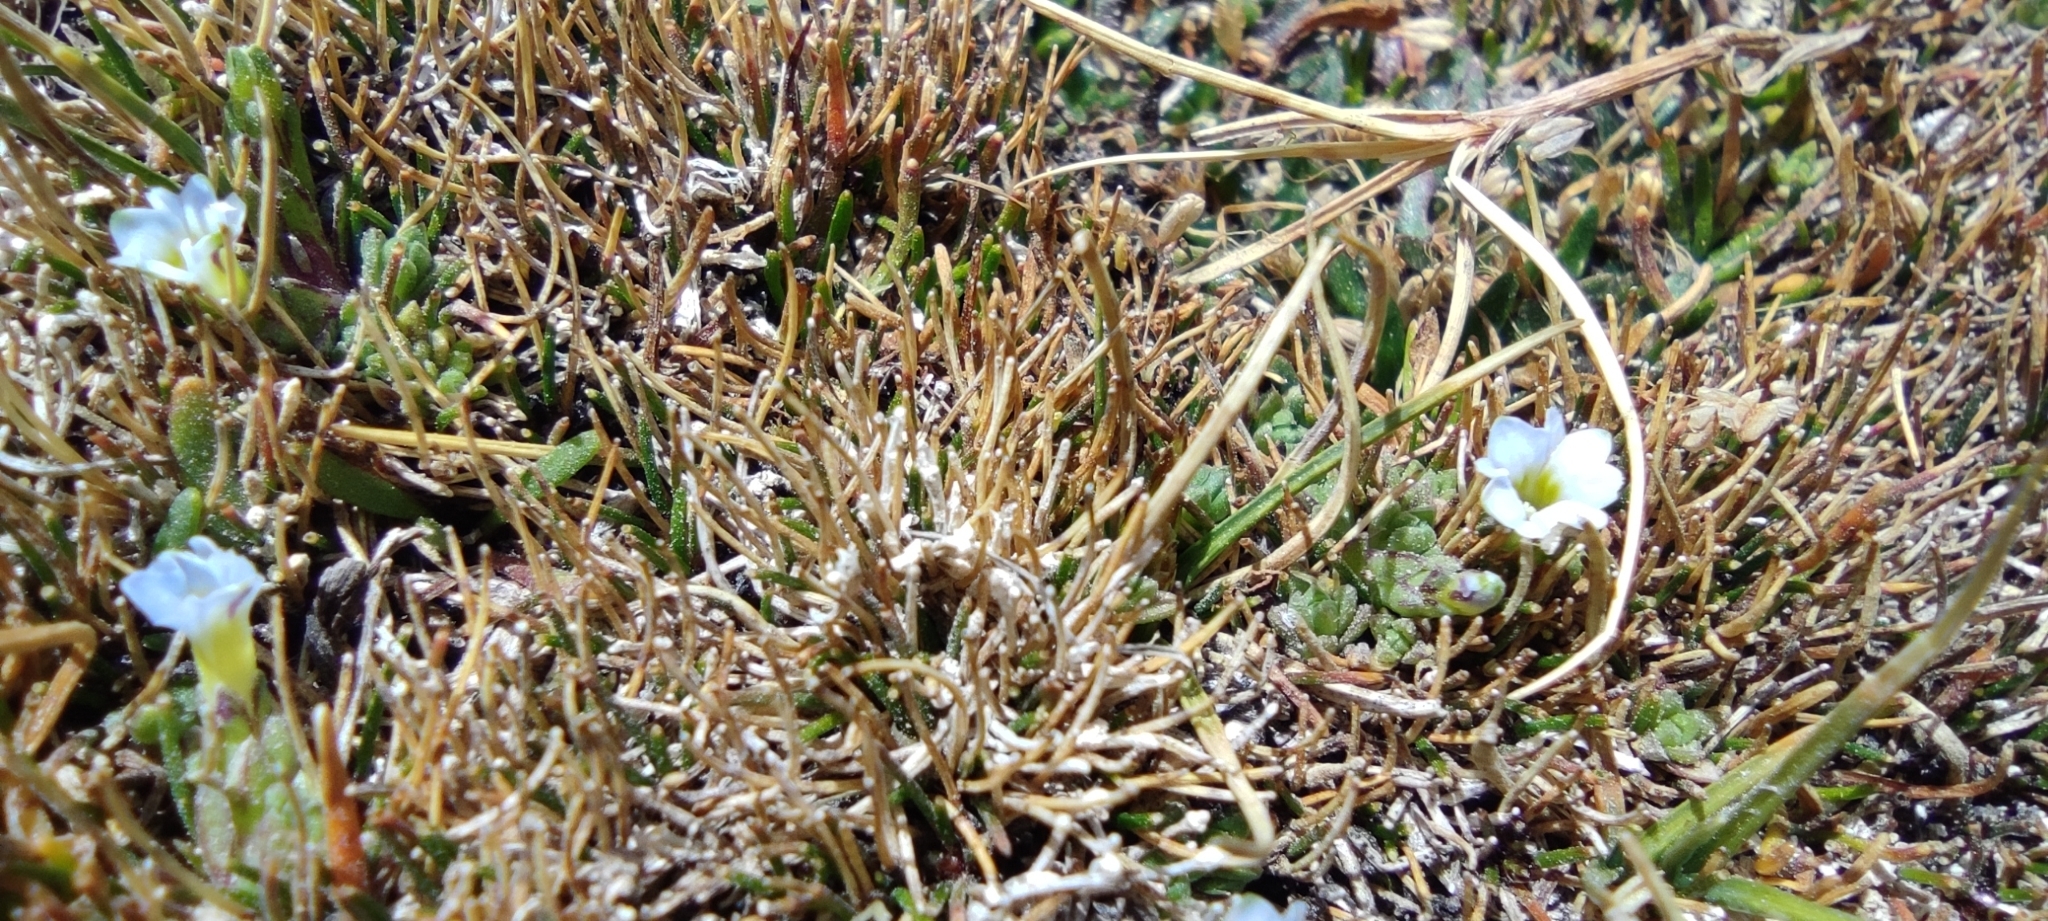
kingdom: Plantae
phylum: Tracheophyta
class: Magnoliopsida
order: Gentianales
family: Gentianaceae
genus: Gentiana
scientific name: Gentiana sedifolia
